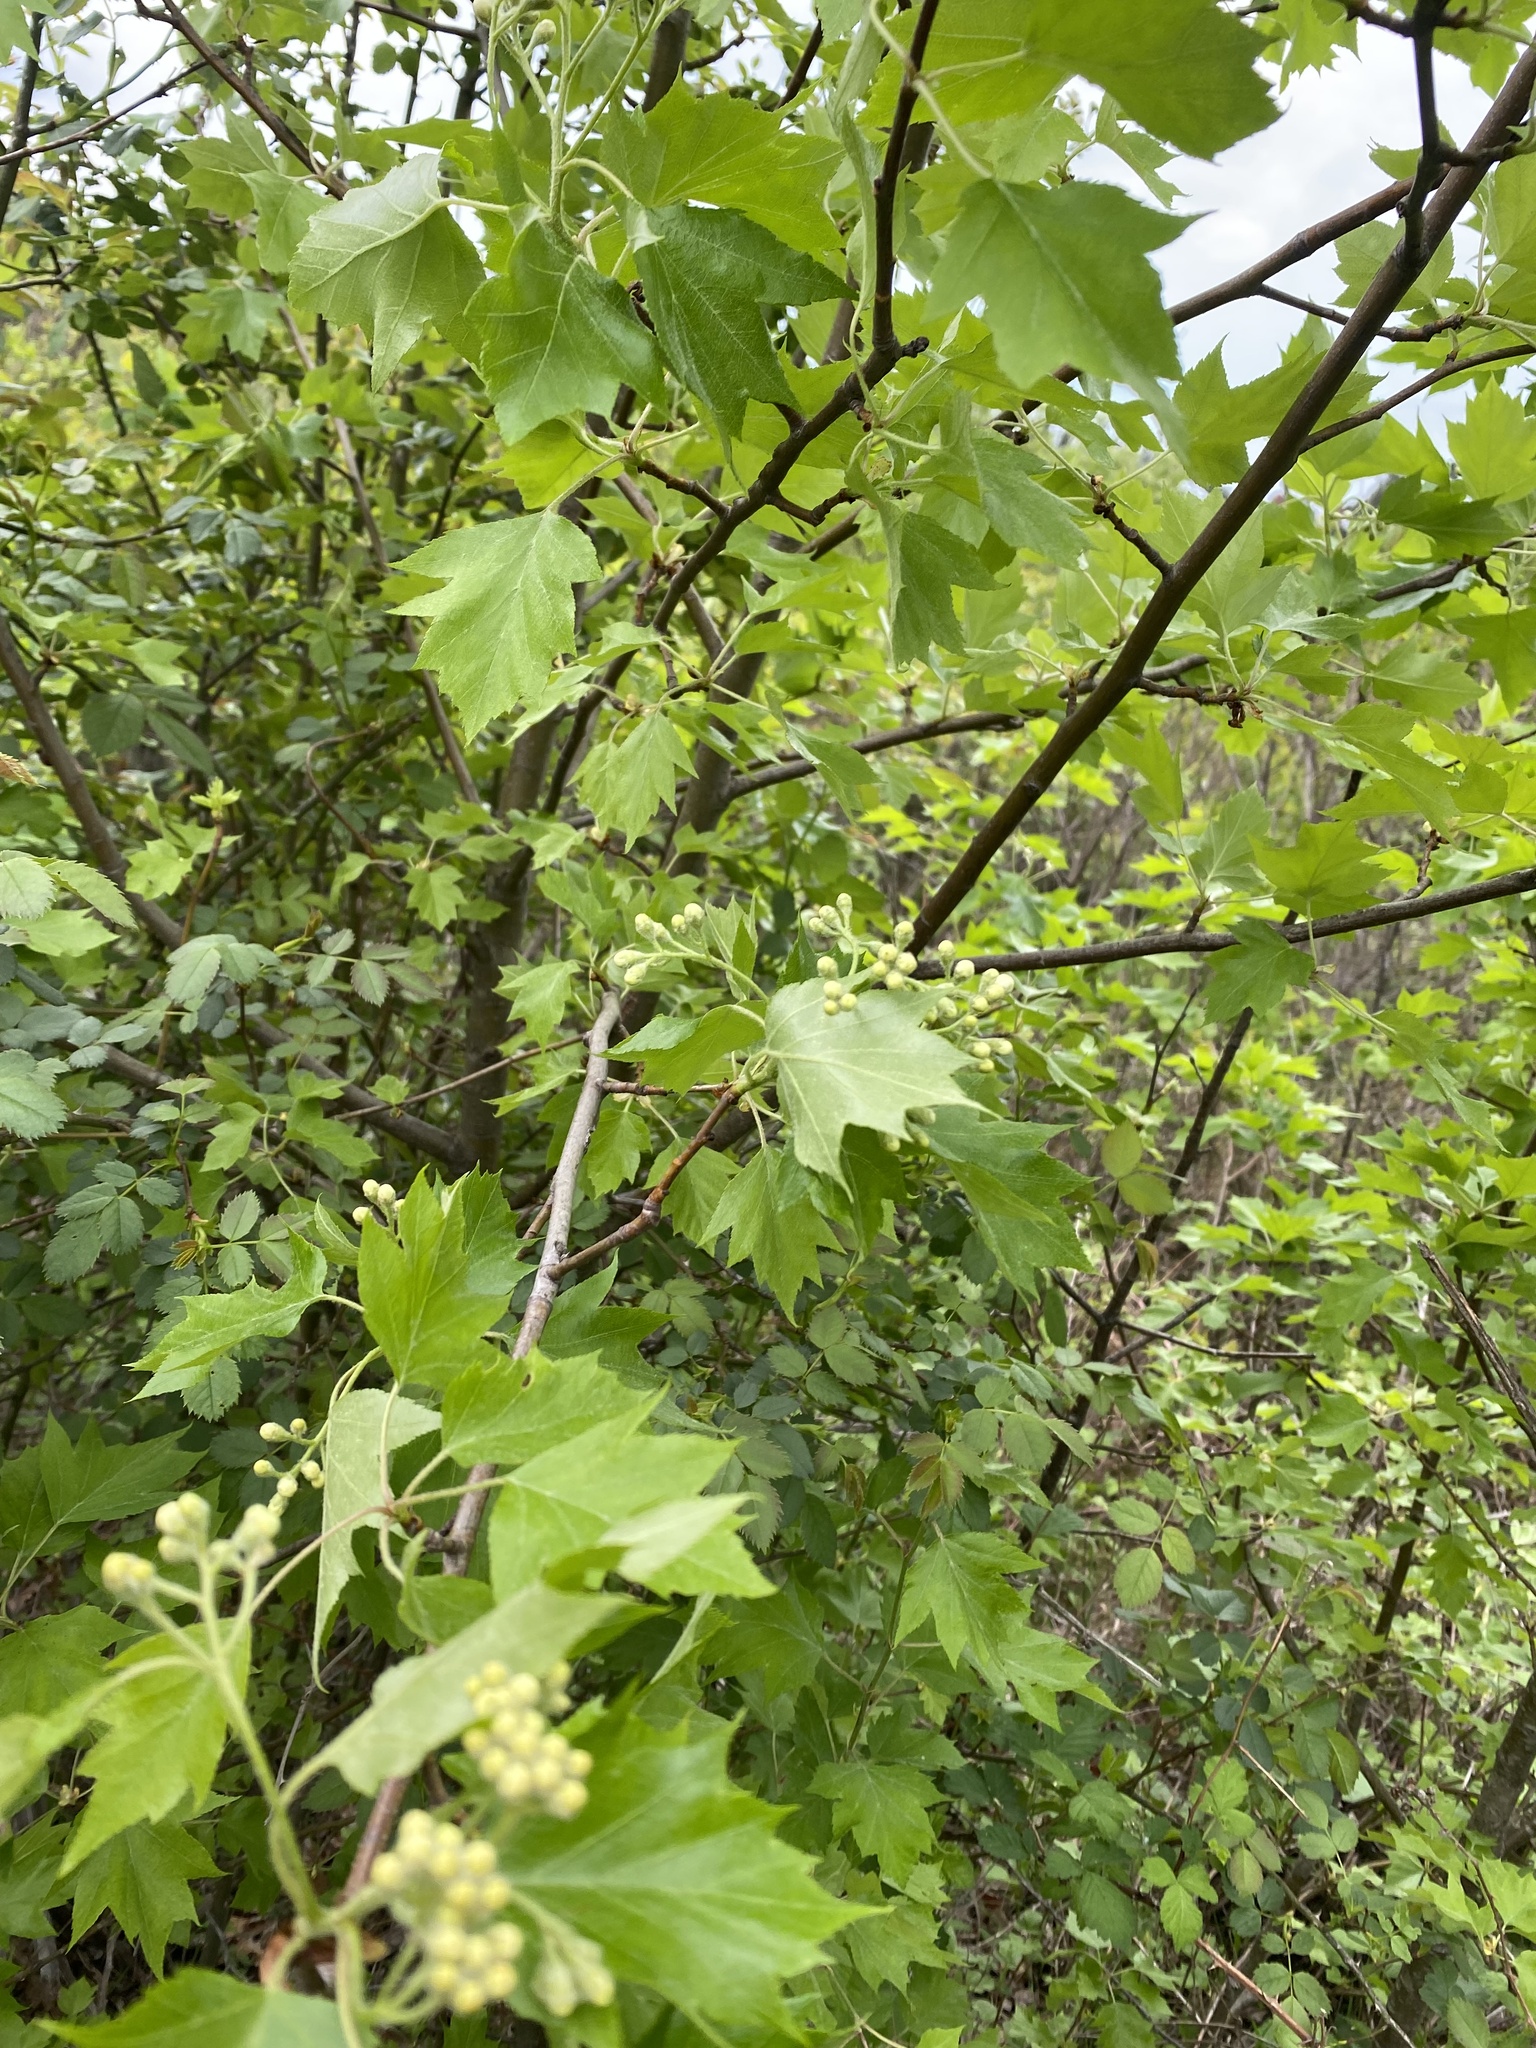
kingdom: Plantae
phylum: Tracheophyta
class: Magnoliopsida
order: Rosales
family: Rosaceae
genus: Torminalis
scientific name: Torminalis glaberrima
